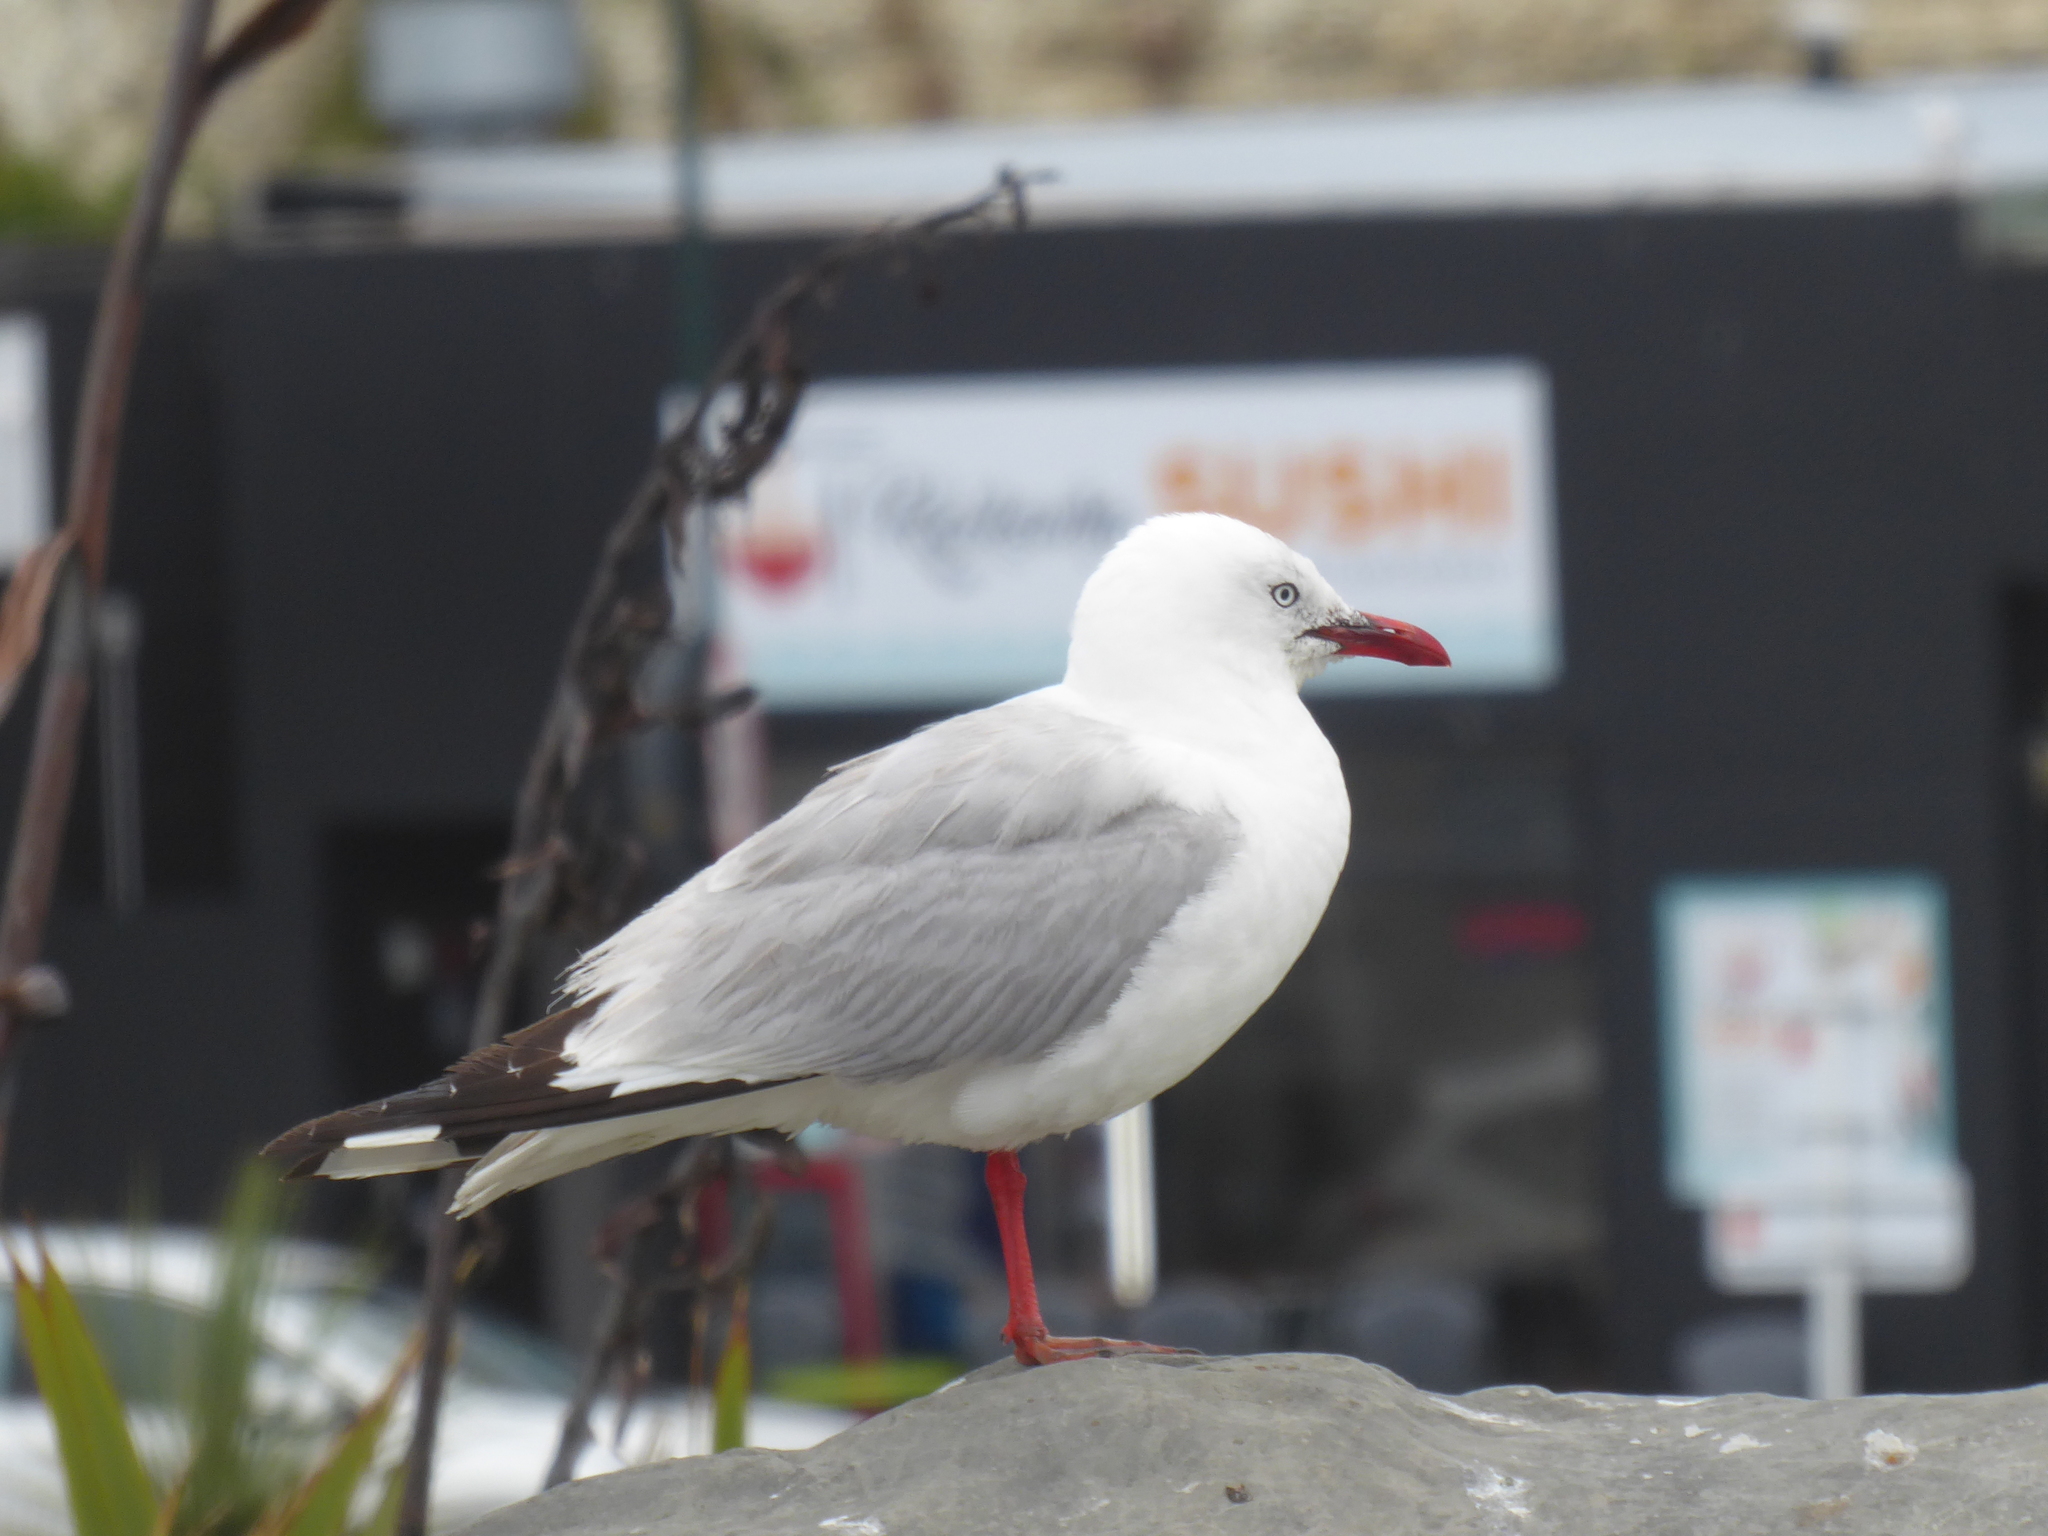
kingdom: Animalia
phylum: Chordata
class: Aves
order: Charadriiformes
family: Laridae
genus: Chroicocephalus
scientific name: Chroicocephalus novaehollandiae
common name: Silver gull
